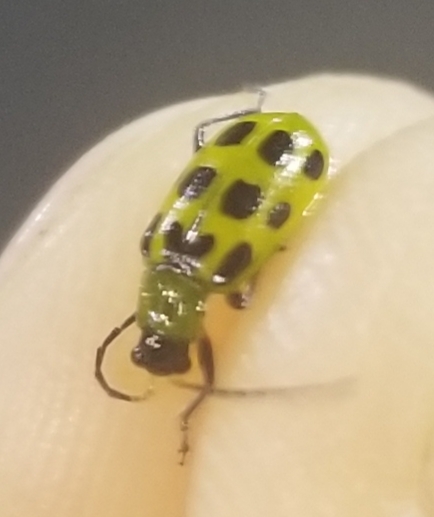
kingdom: Animalia
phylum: Arthropoda
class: Insecta
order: Coleoptera
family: Chrysomelidae
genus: Diabrotica
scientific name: Diabrotica undecimpunctata
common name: Spotted cucumber beetle
